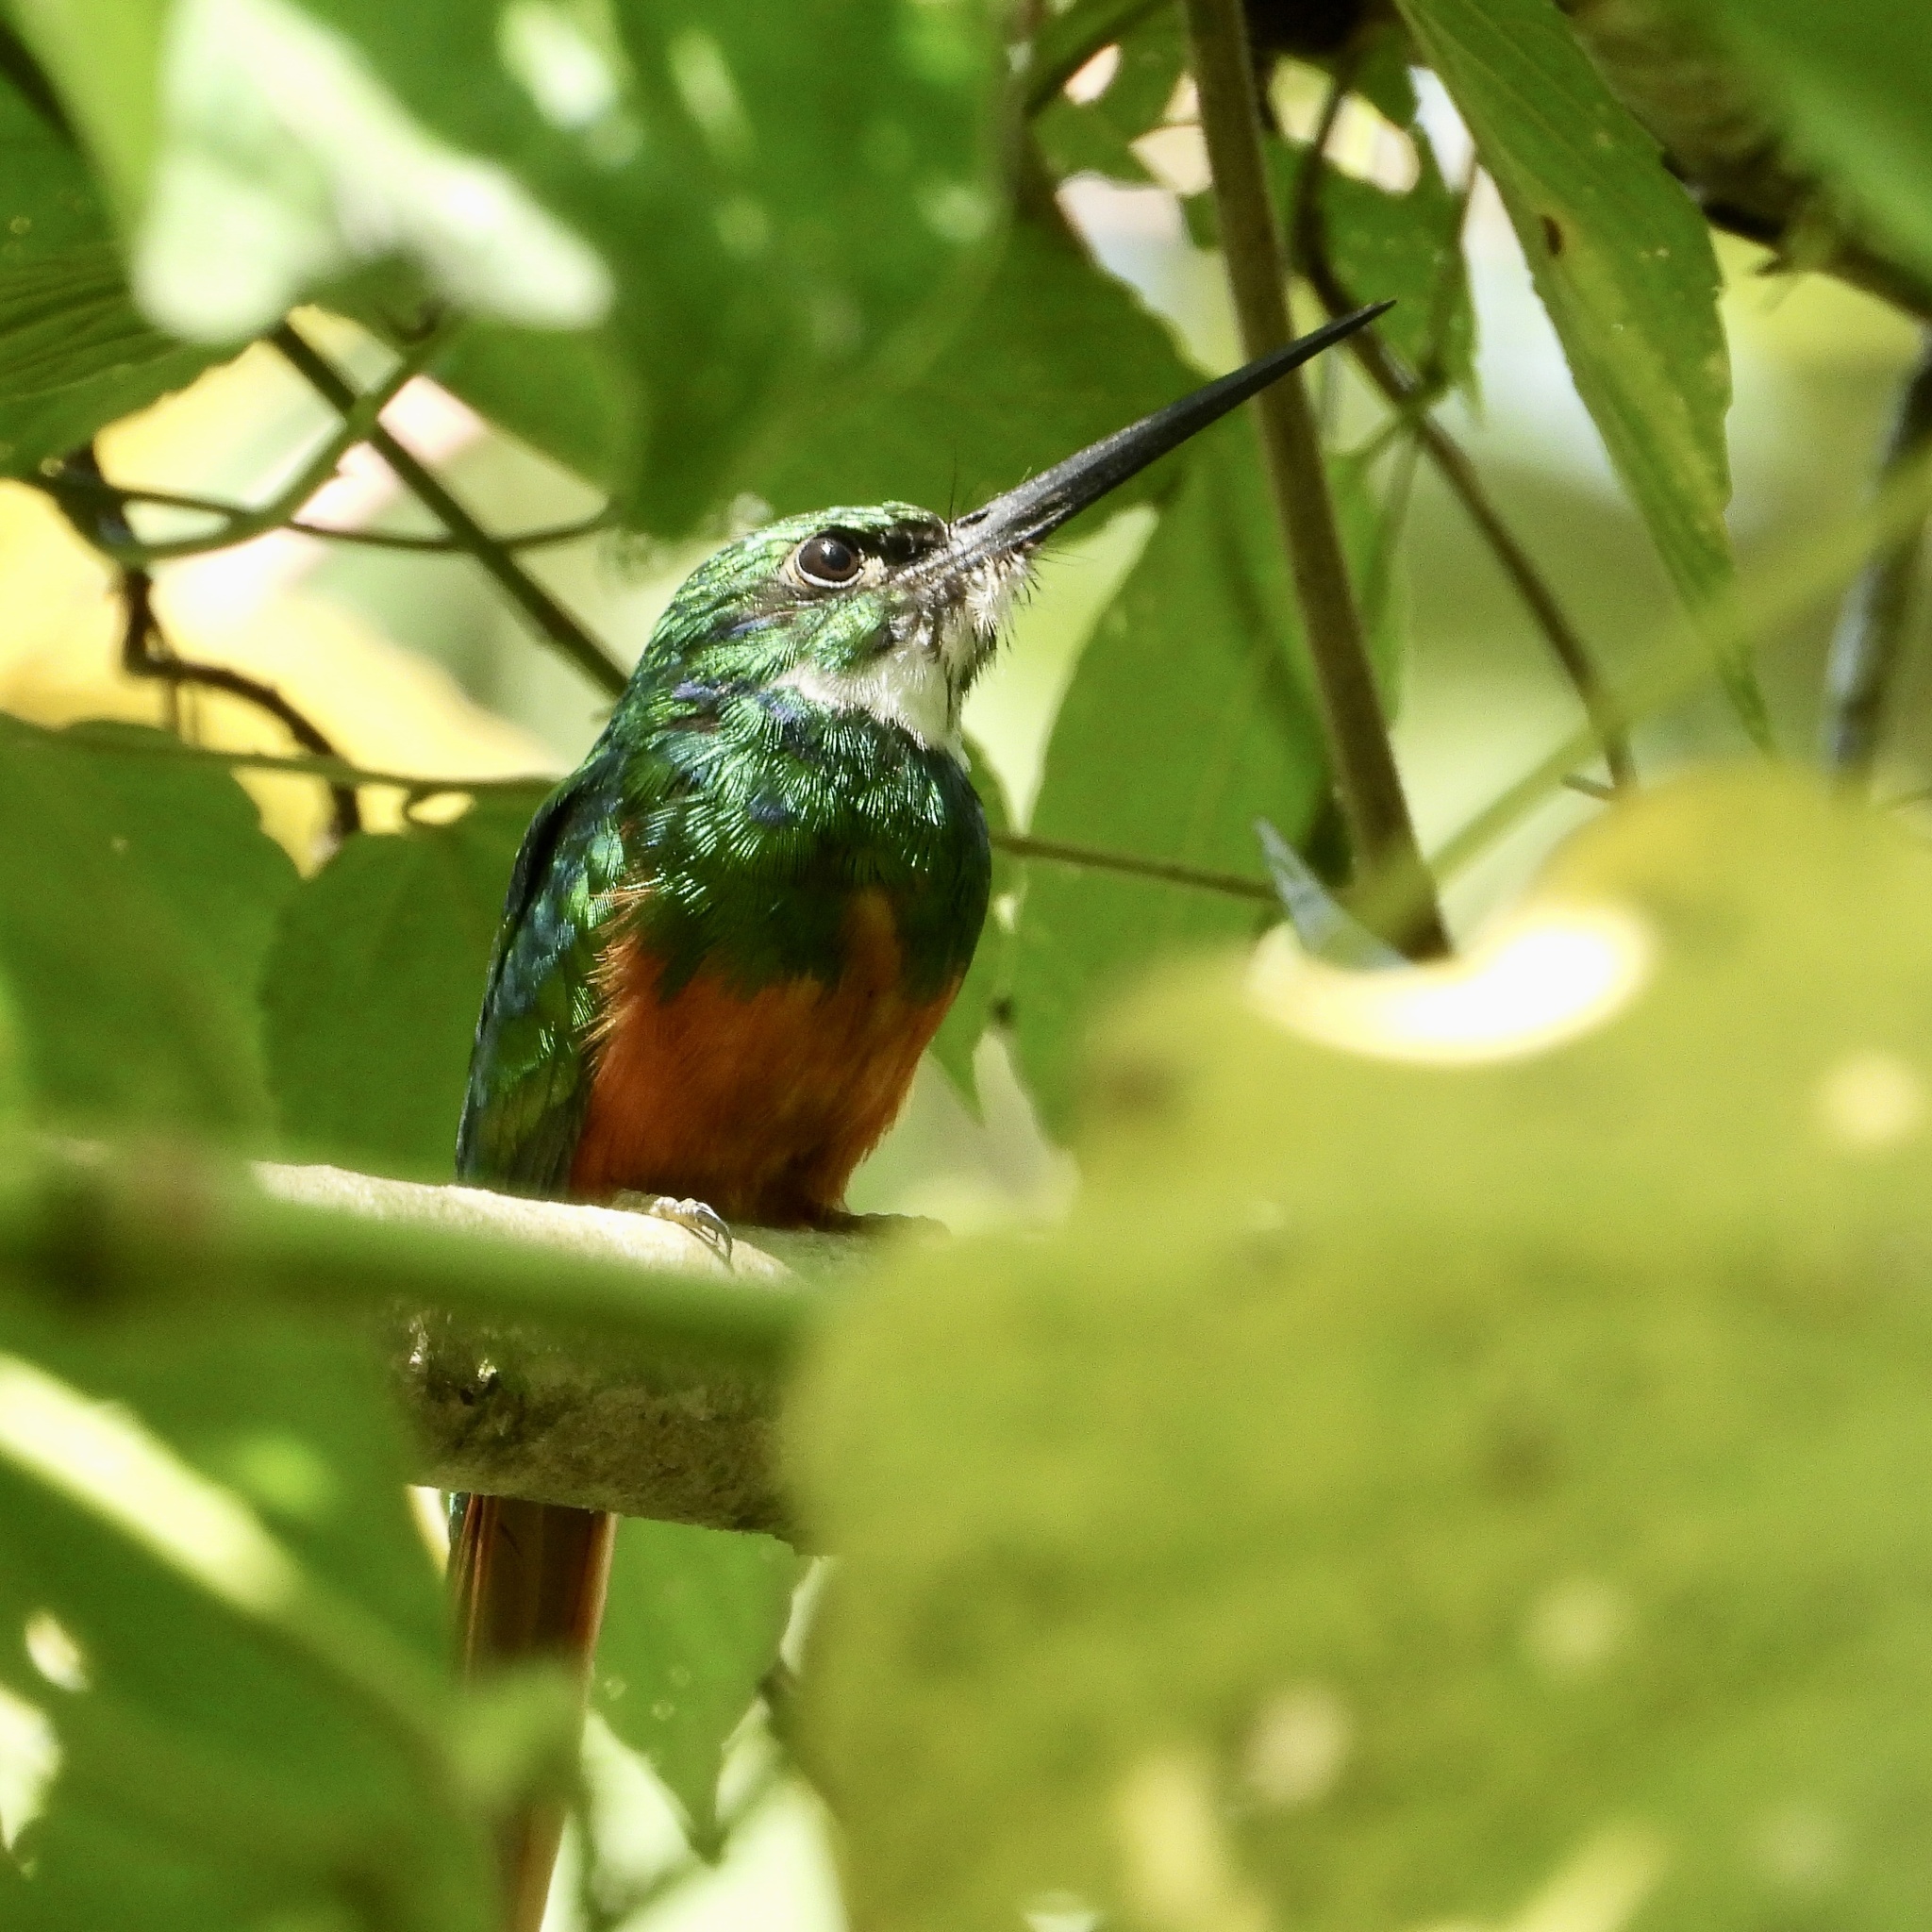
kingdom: Animalia
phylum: Chordata
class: Aves
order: Piciformes
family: Galbulidae
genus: Galbula
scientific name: Galbula ruficauda
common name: Rufous-tailed jacamar
